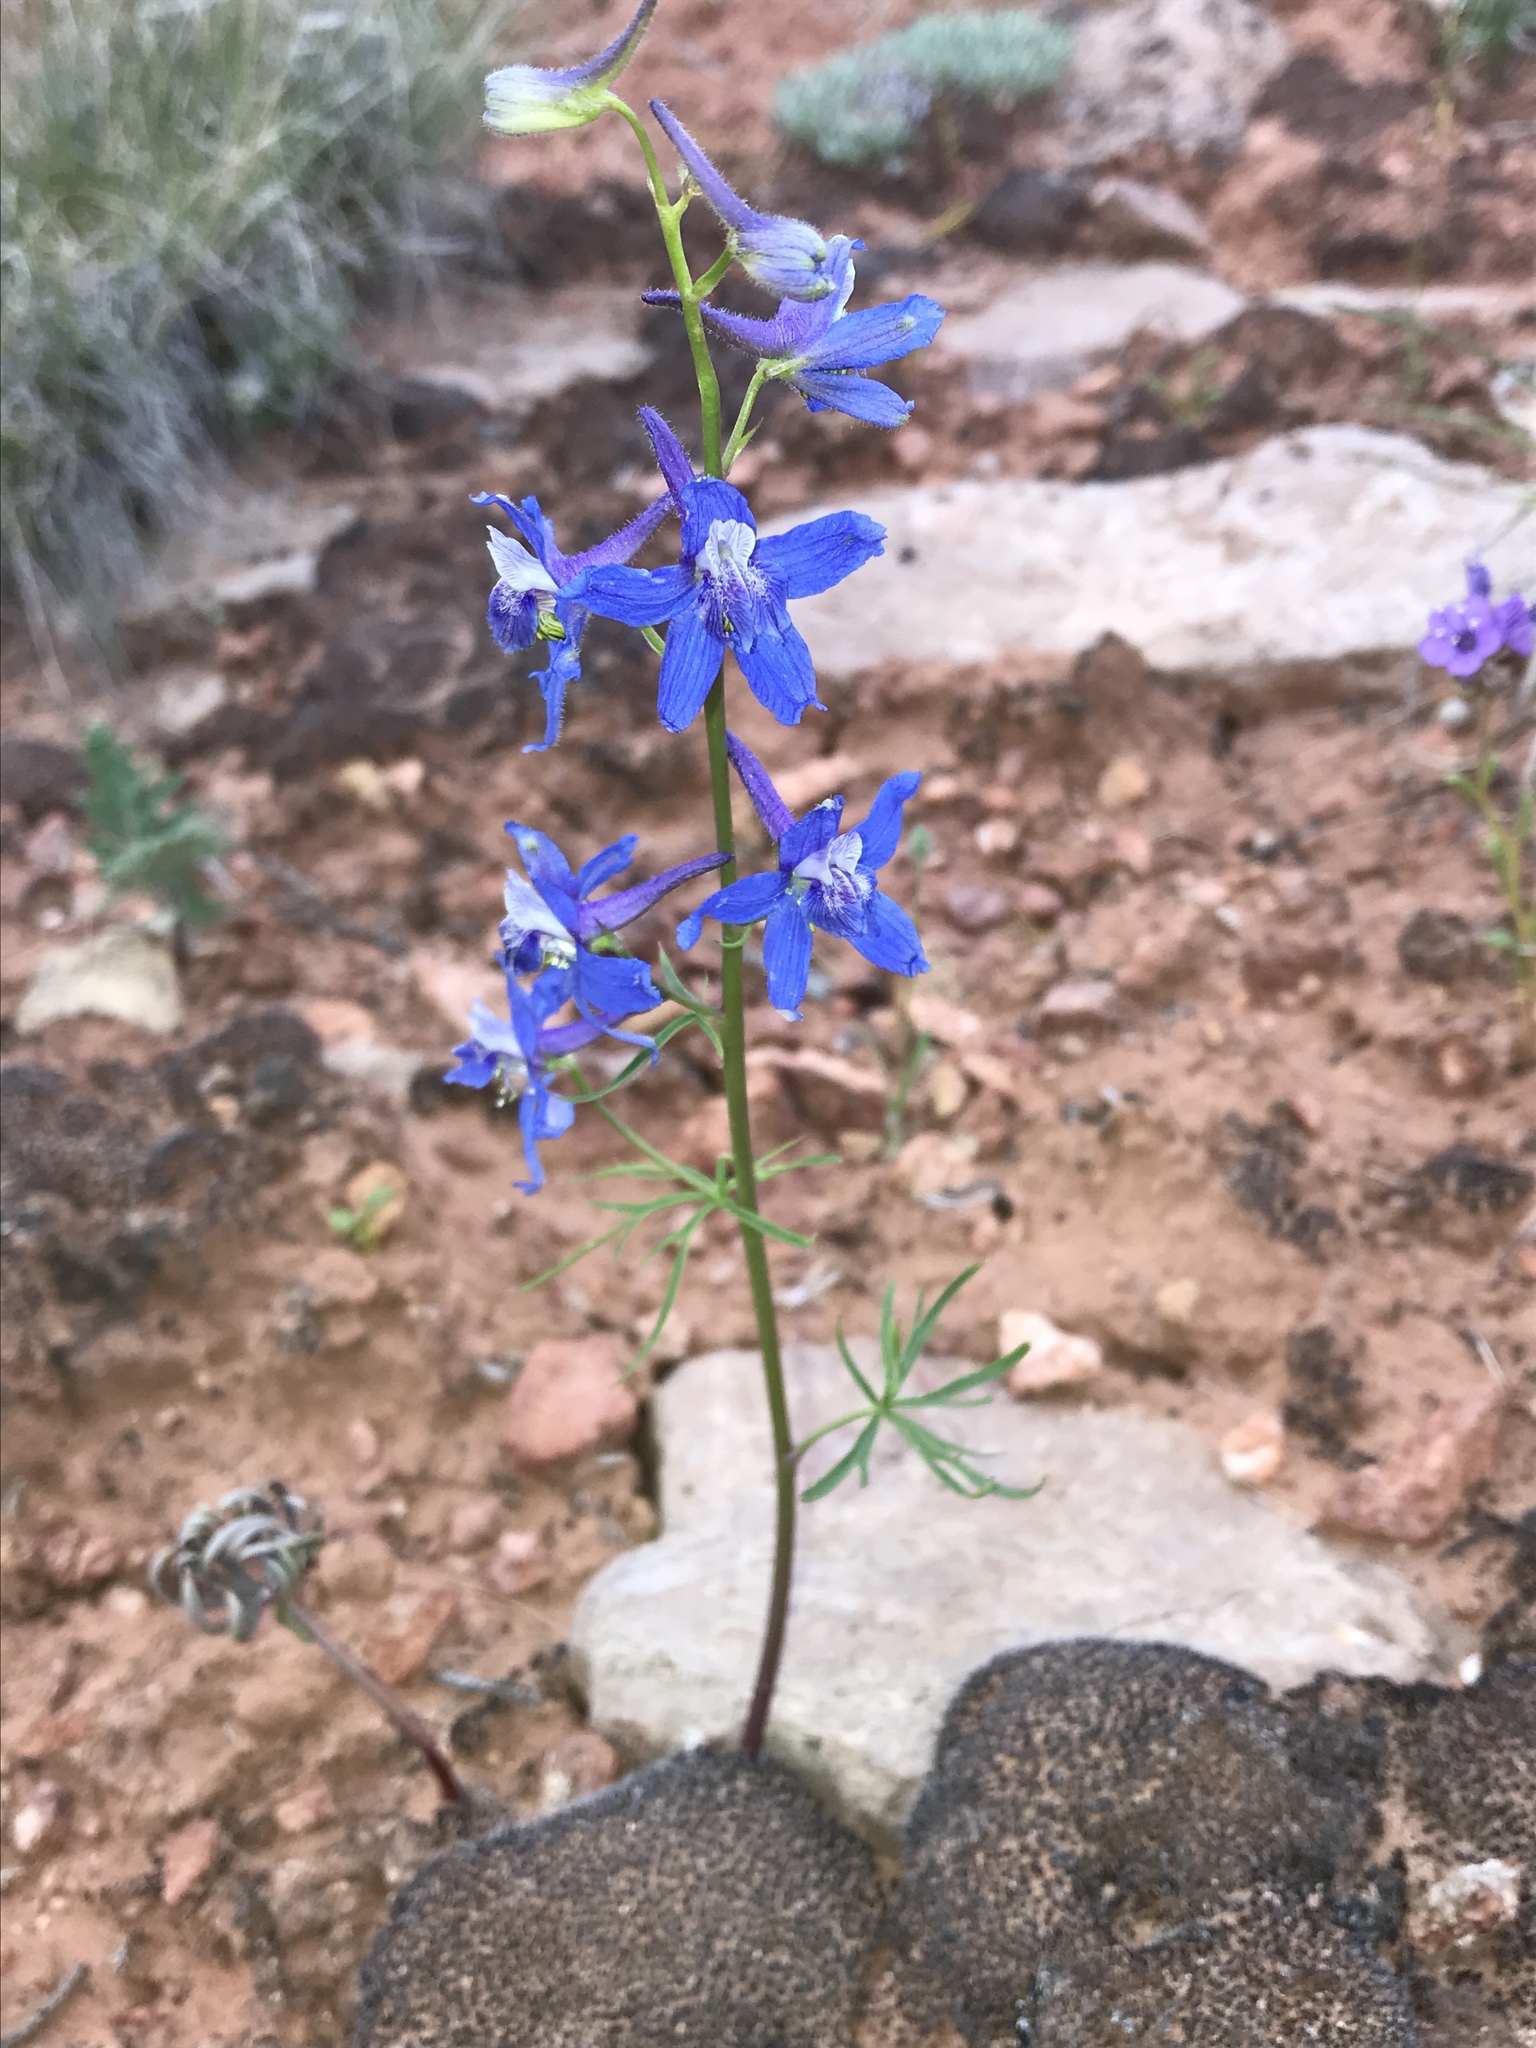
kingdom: Plantae
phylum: Tracheophyta
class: Magnoliopsida
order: Ranunculales
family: Ranunculaceae
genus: Delphinium
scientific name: Delphinium nuttallianum
